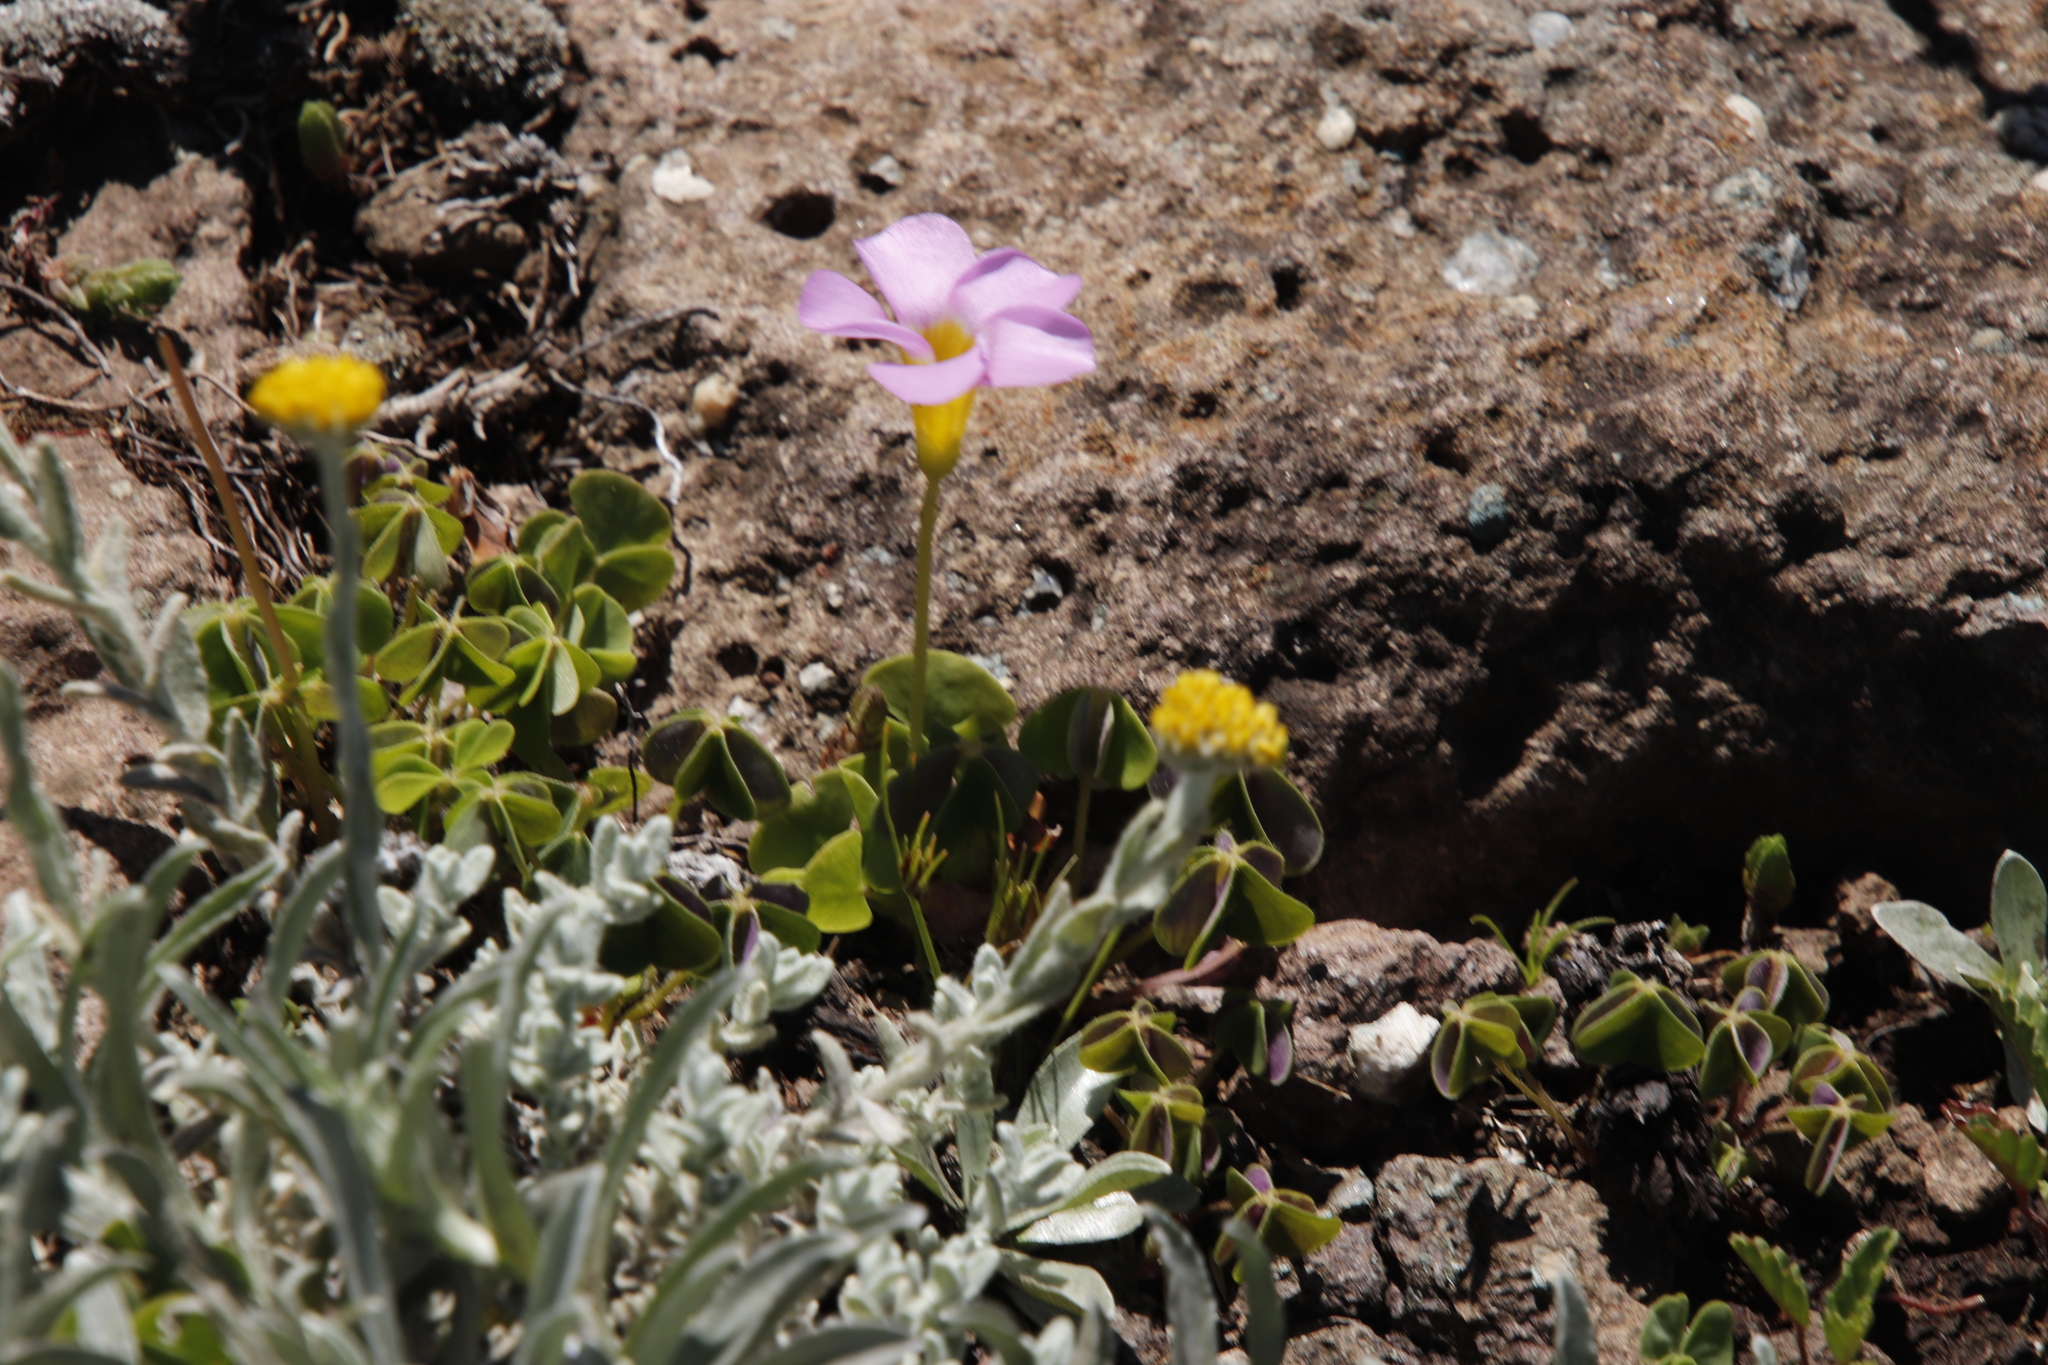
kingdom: Plantae
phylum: Tracheophyta
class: Magnoliopsida
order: Oxalidales
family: Oxalidaceae
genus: Oxalis
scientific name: Oxalis obliquifolia
